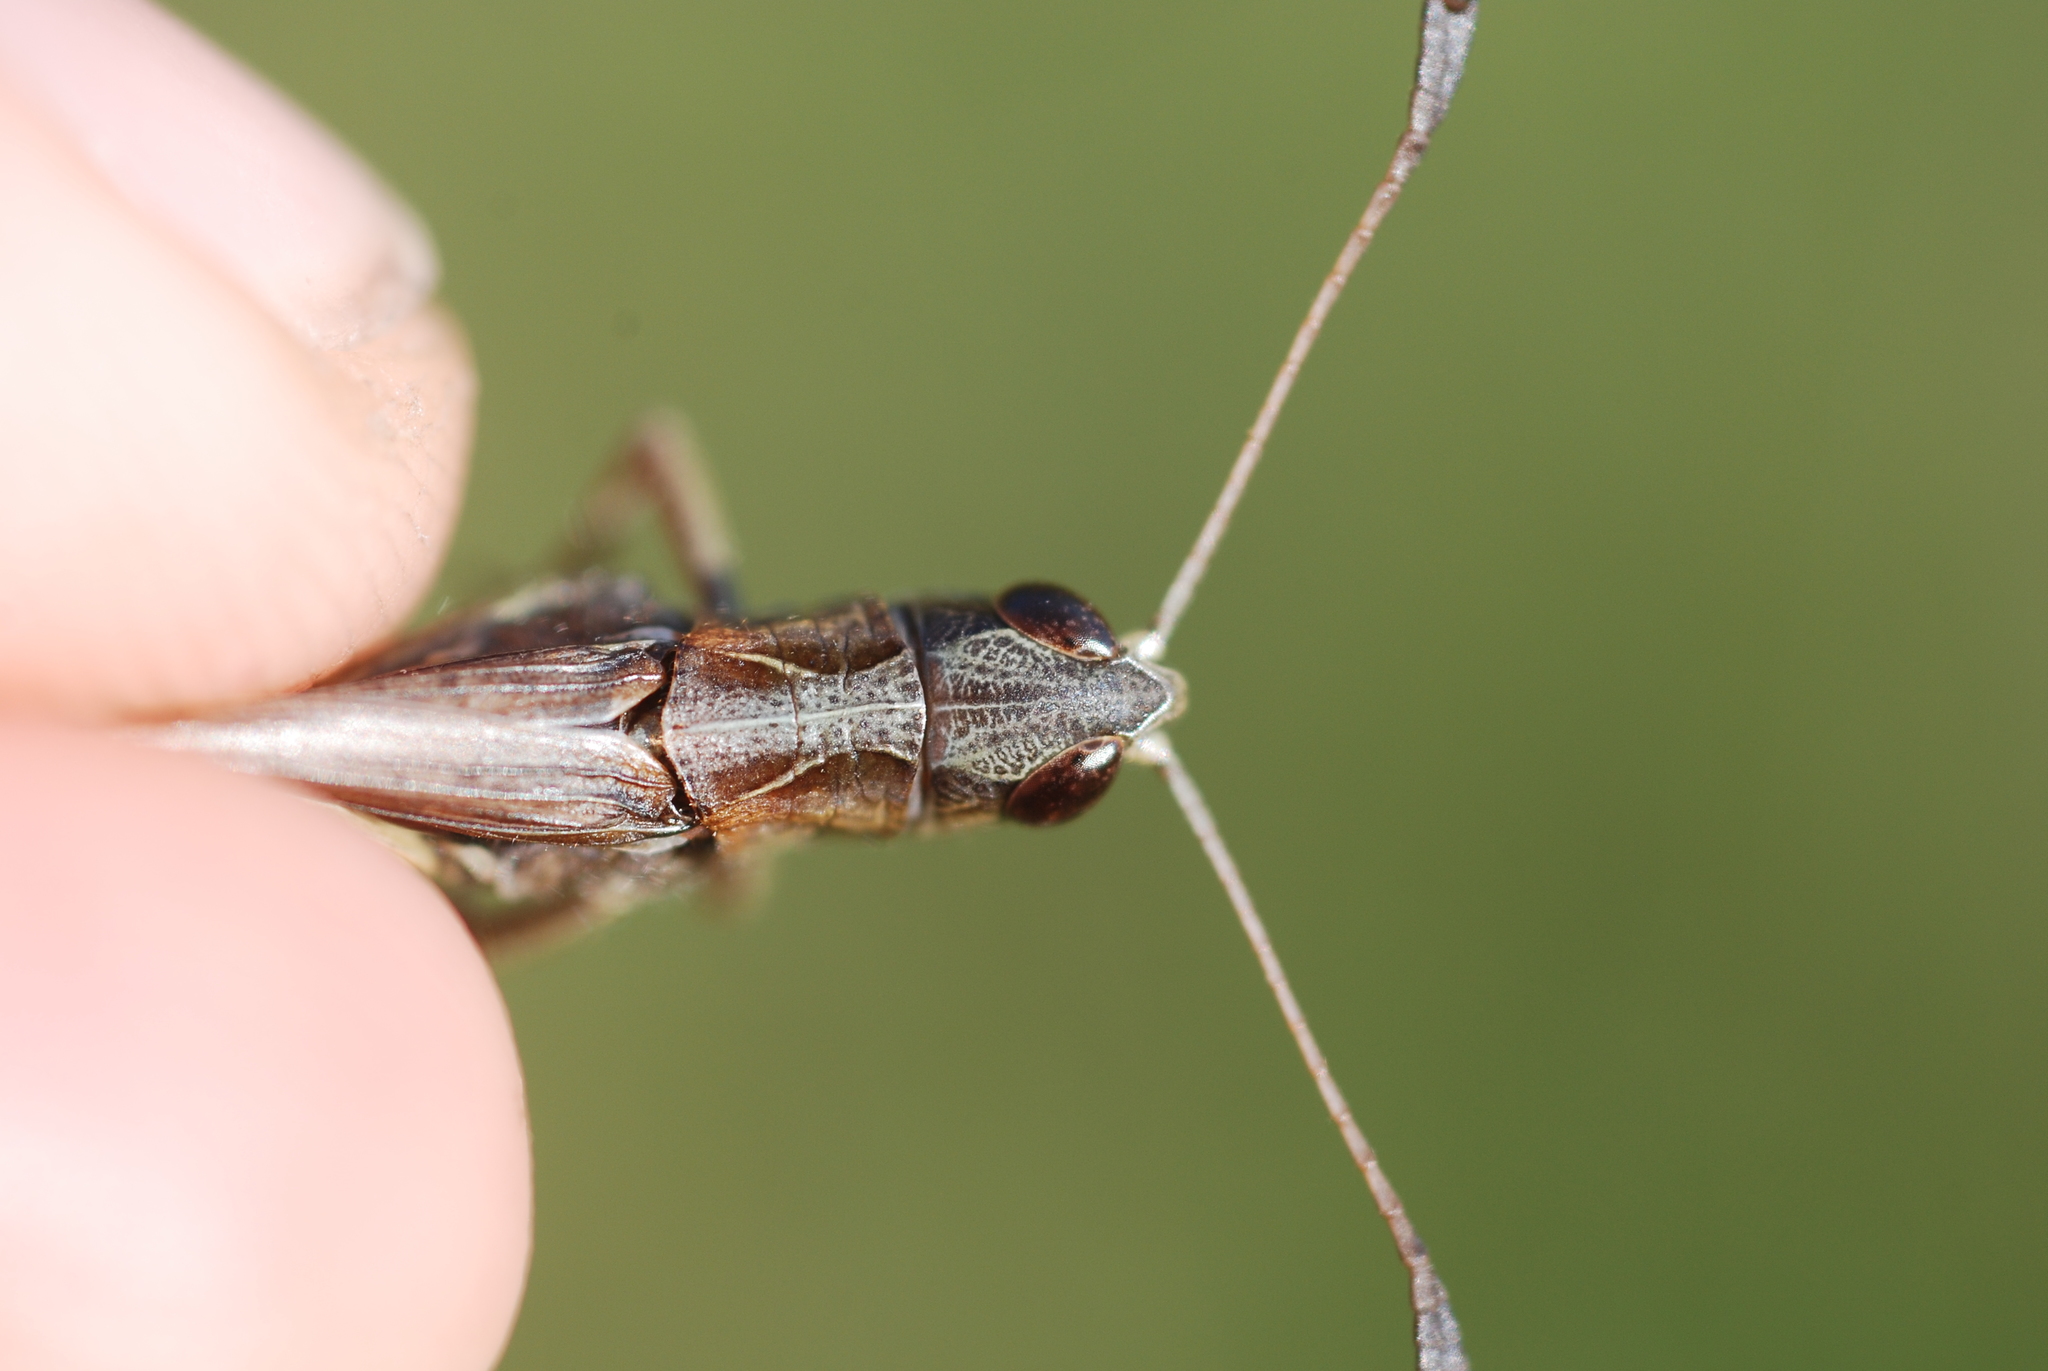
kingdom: Animalia
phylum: Arthropoda
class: Insecta
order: Orthoptera
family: Acrididae
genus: Gomphocerippus
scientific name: Gomphocerippus rufus
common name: Rufous grasshopper
